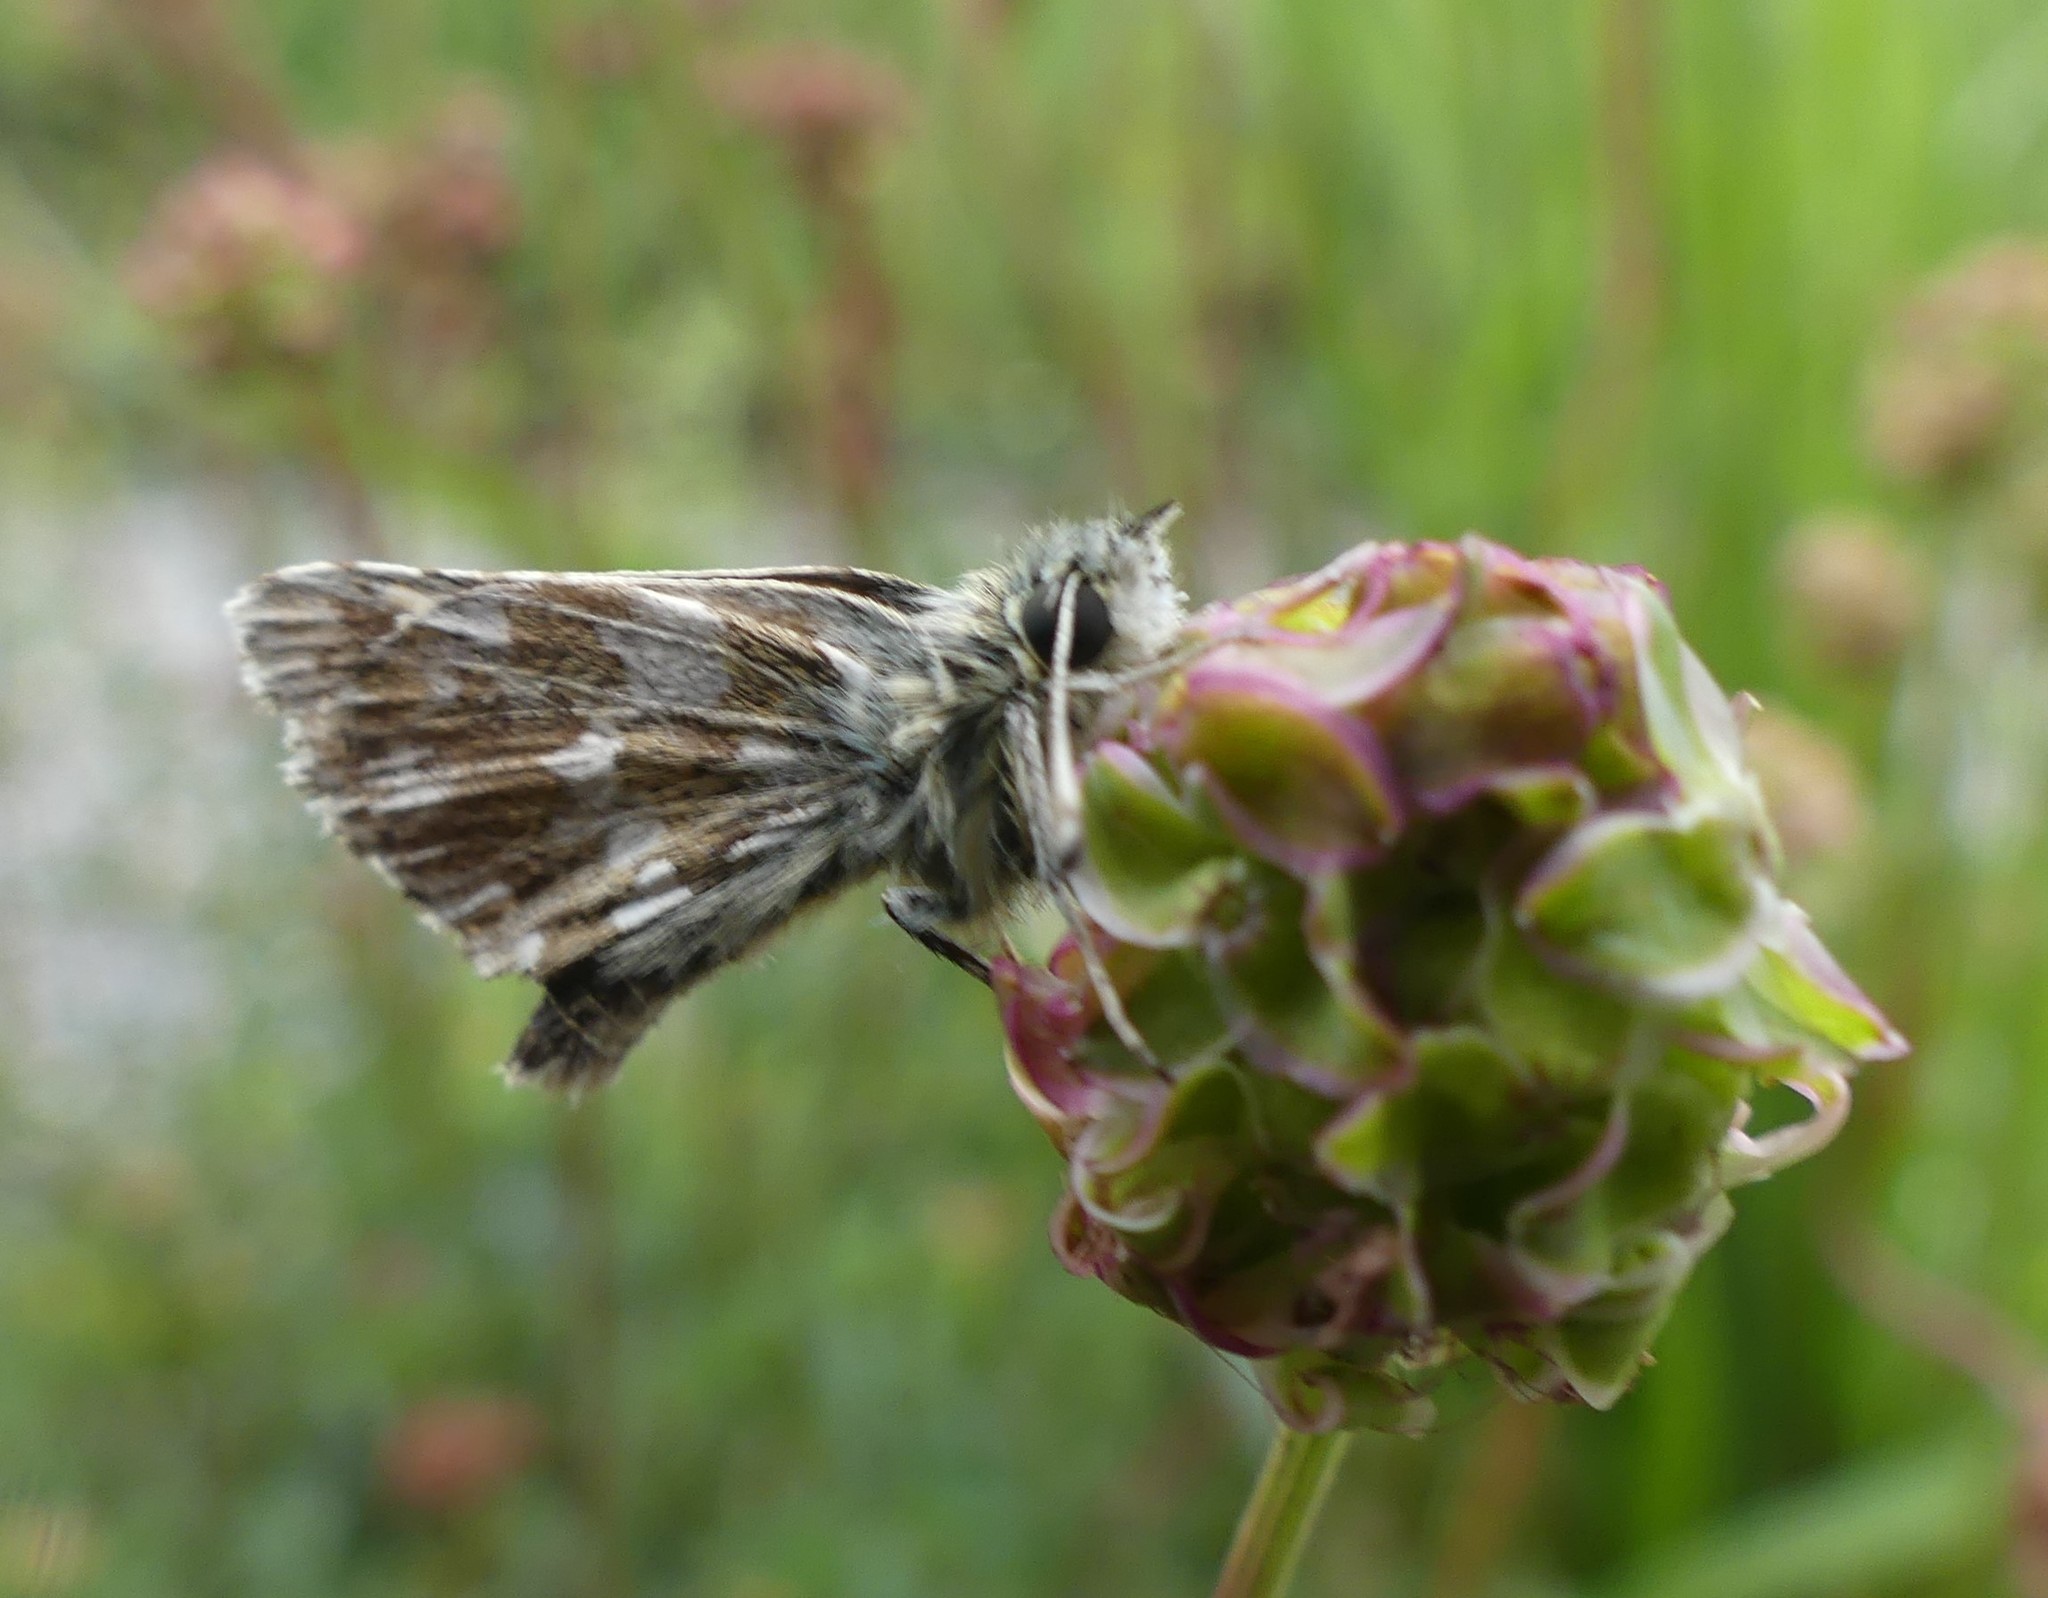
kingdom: Animalia
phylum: Arthropoda
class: Insecta
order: Lepidoptera
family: Hesperiidae
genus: Spialia
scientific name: Spialia sertorius
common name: Red underwing skipper
